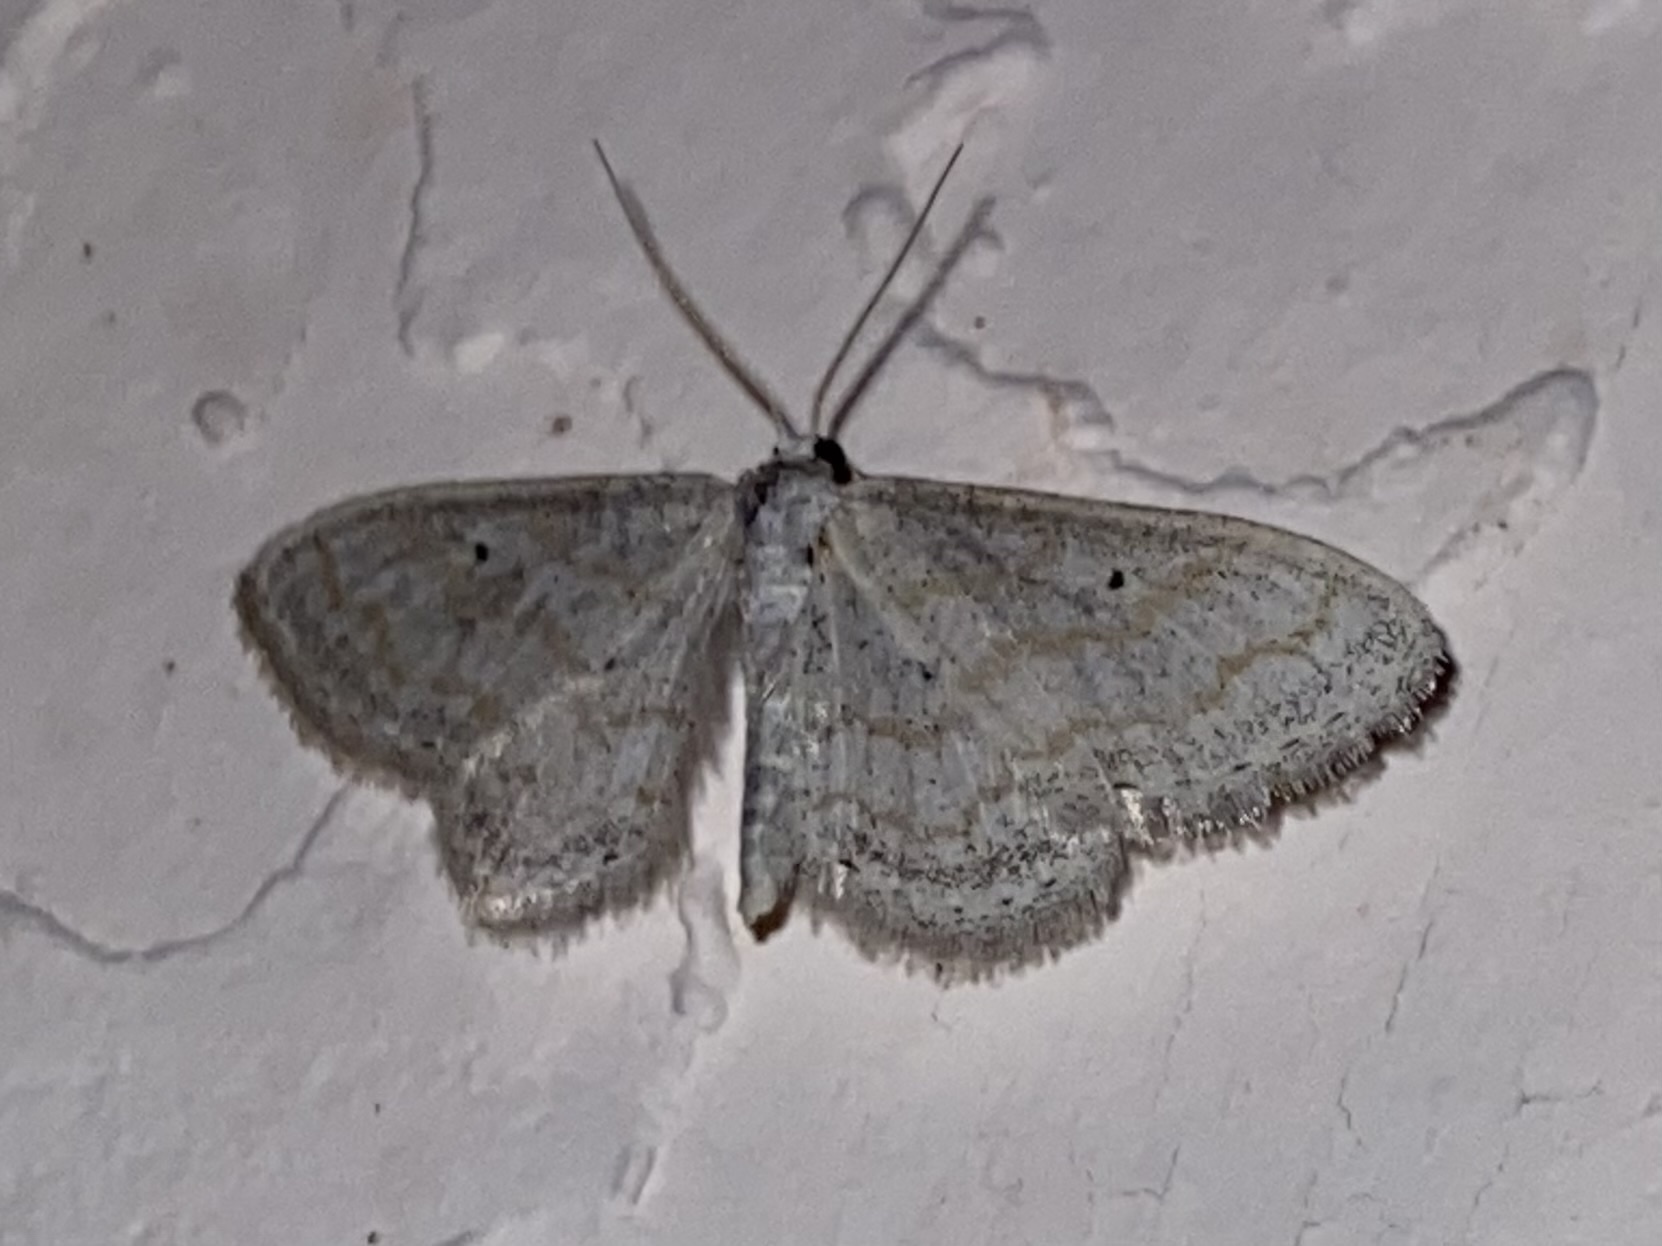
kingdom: Animalia
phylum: Arthropoda
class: Insecta
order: Lepidoptera
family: Geometridae
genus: Lobocleta
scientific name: Lobocleta peralbata
